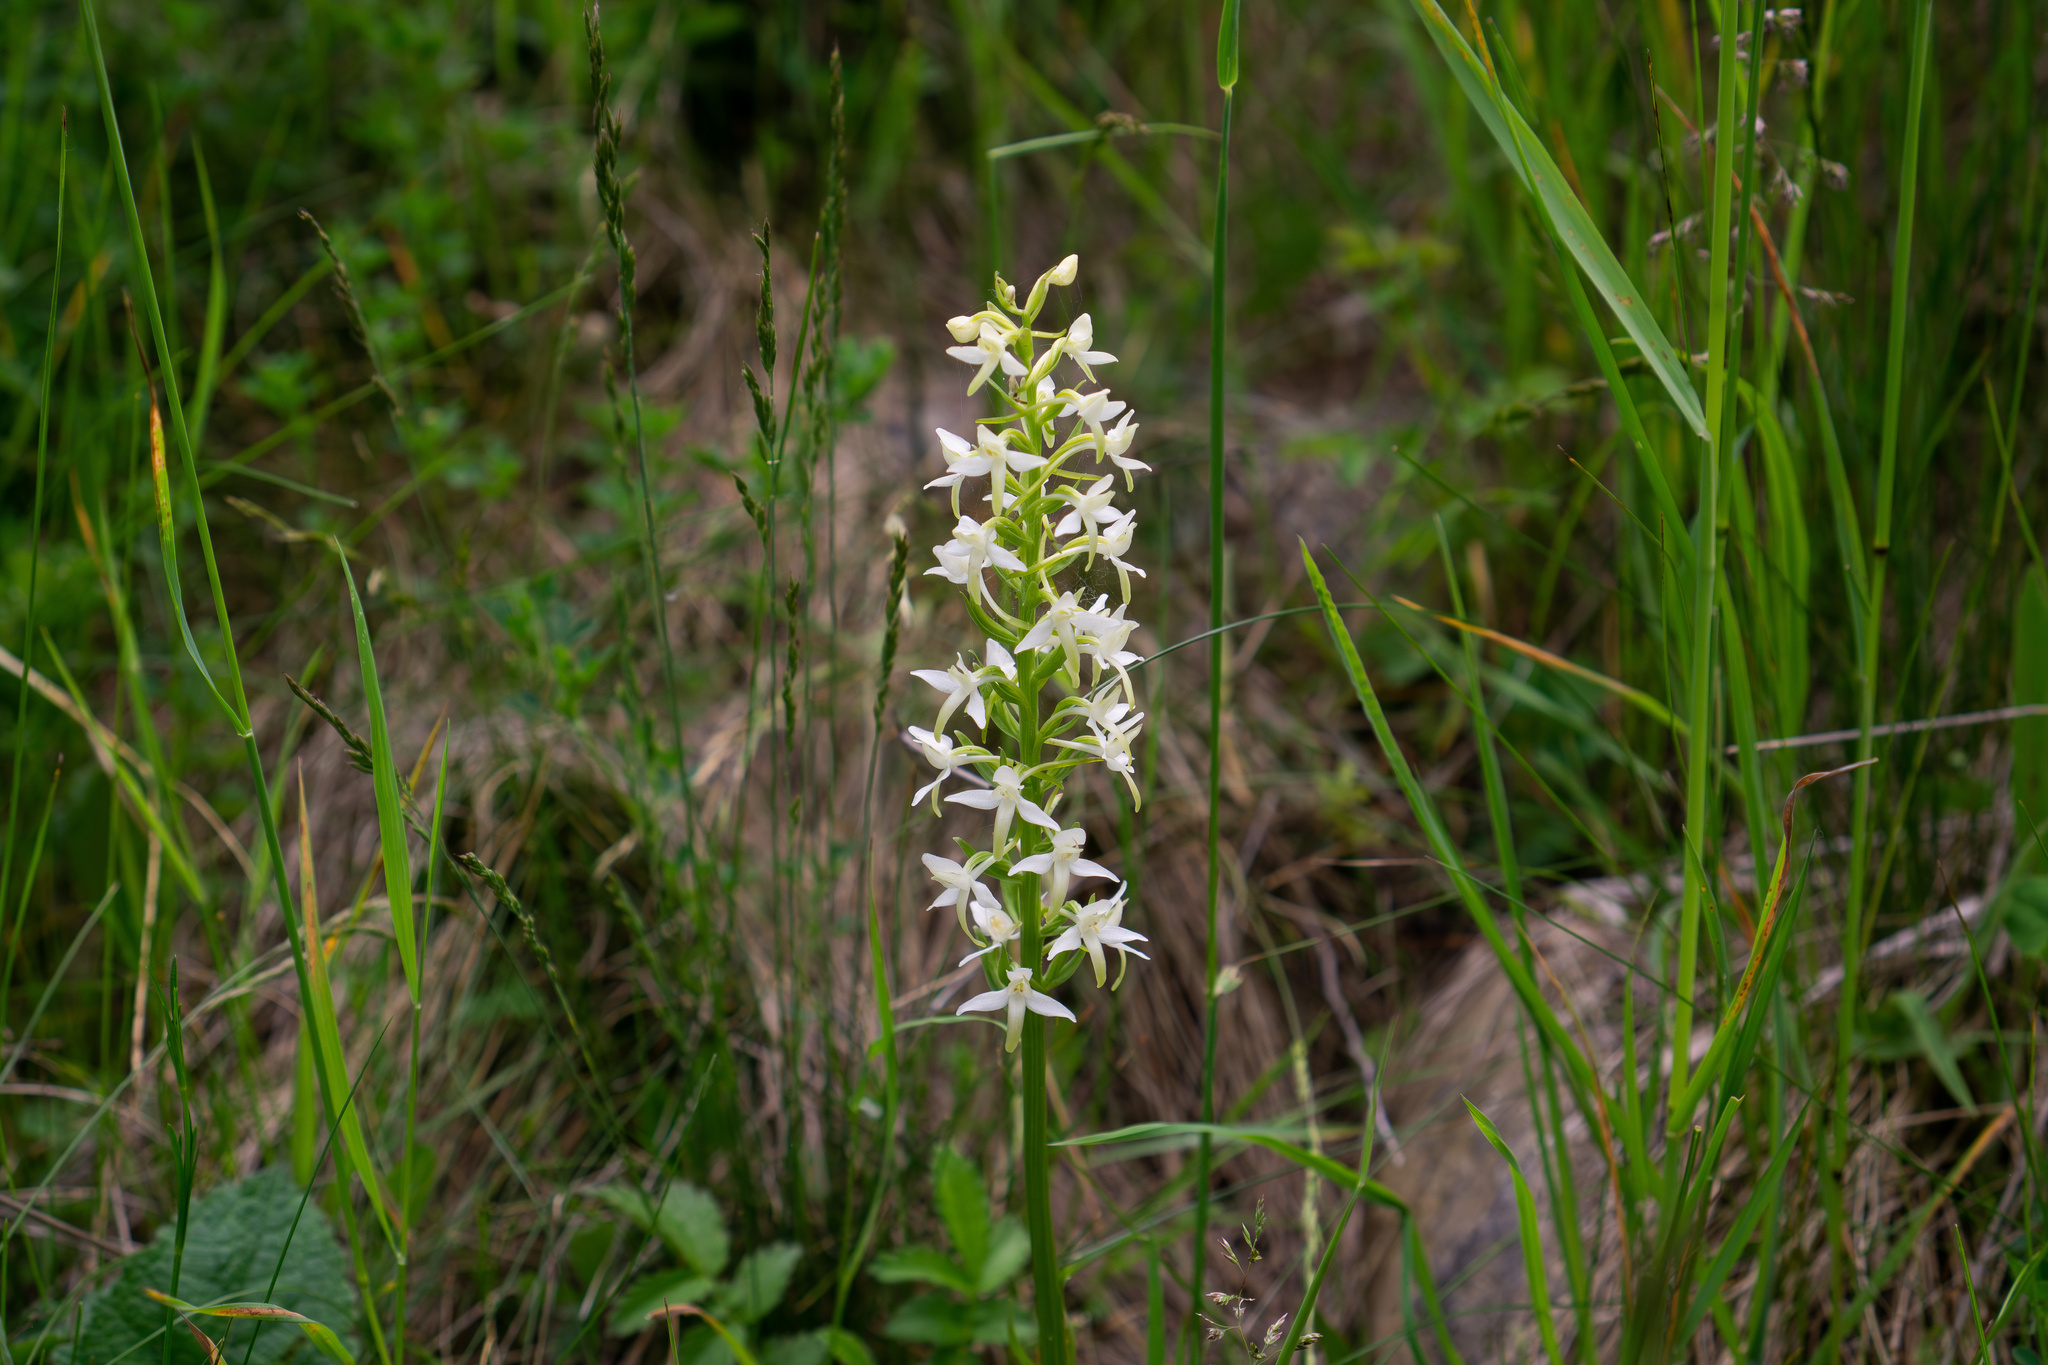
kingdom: Plantae
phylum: Tracheophyta
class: Liliopsida
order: Asparagales
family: Orchidaceae
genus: Platanthera
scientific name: Platanthera bifolia
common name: Lesser butterfly-orchid
